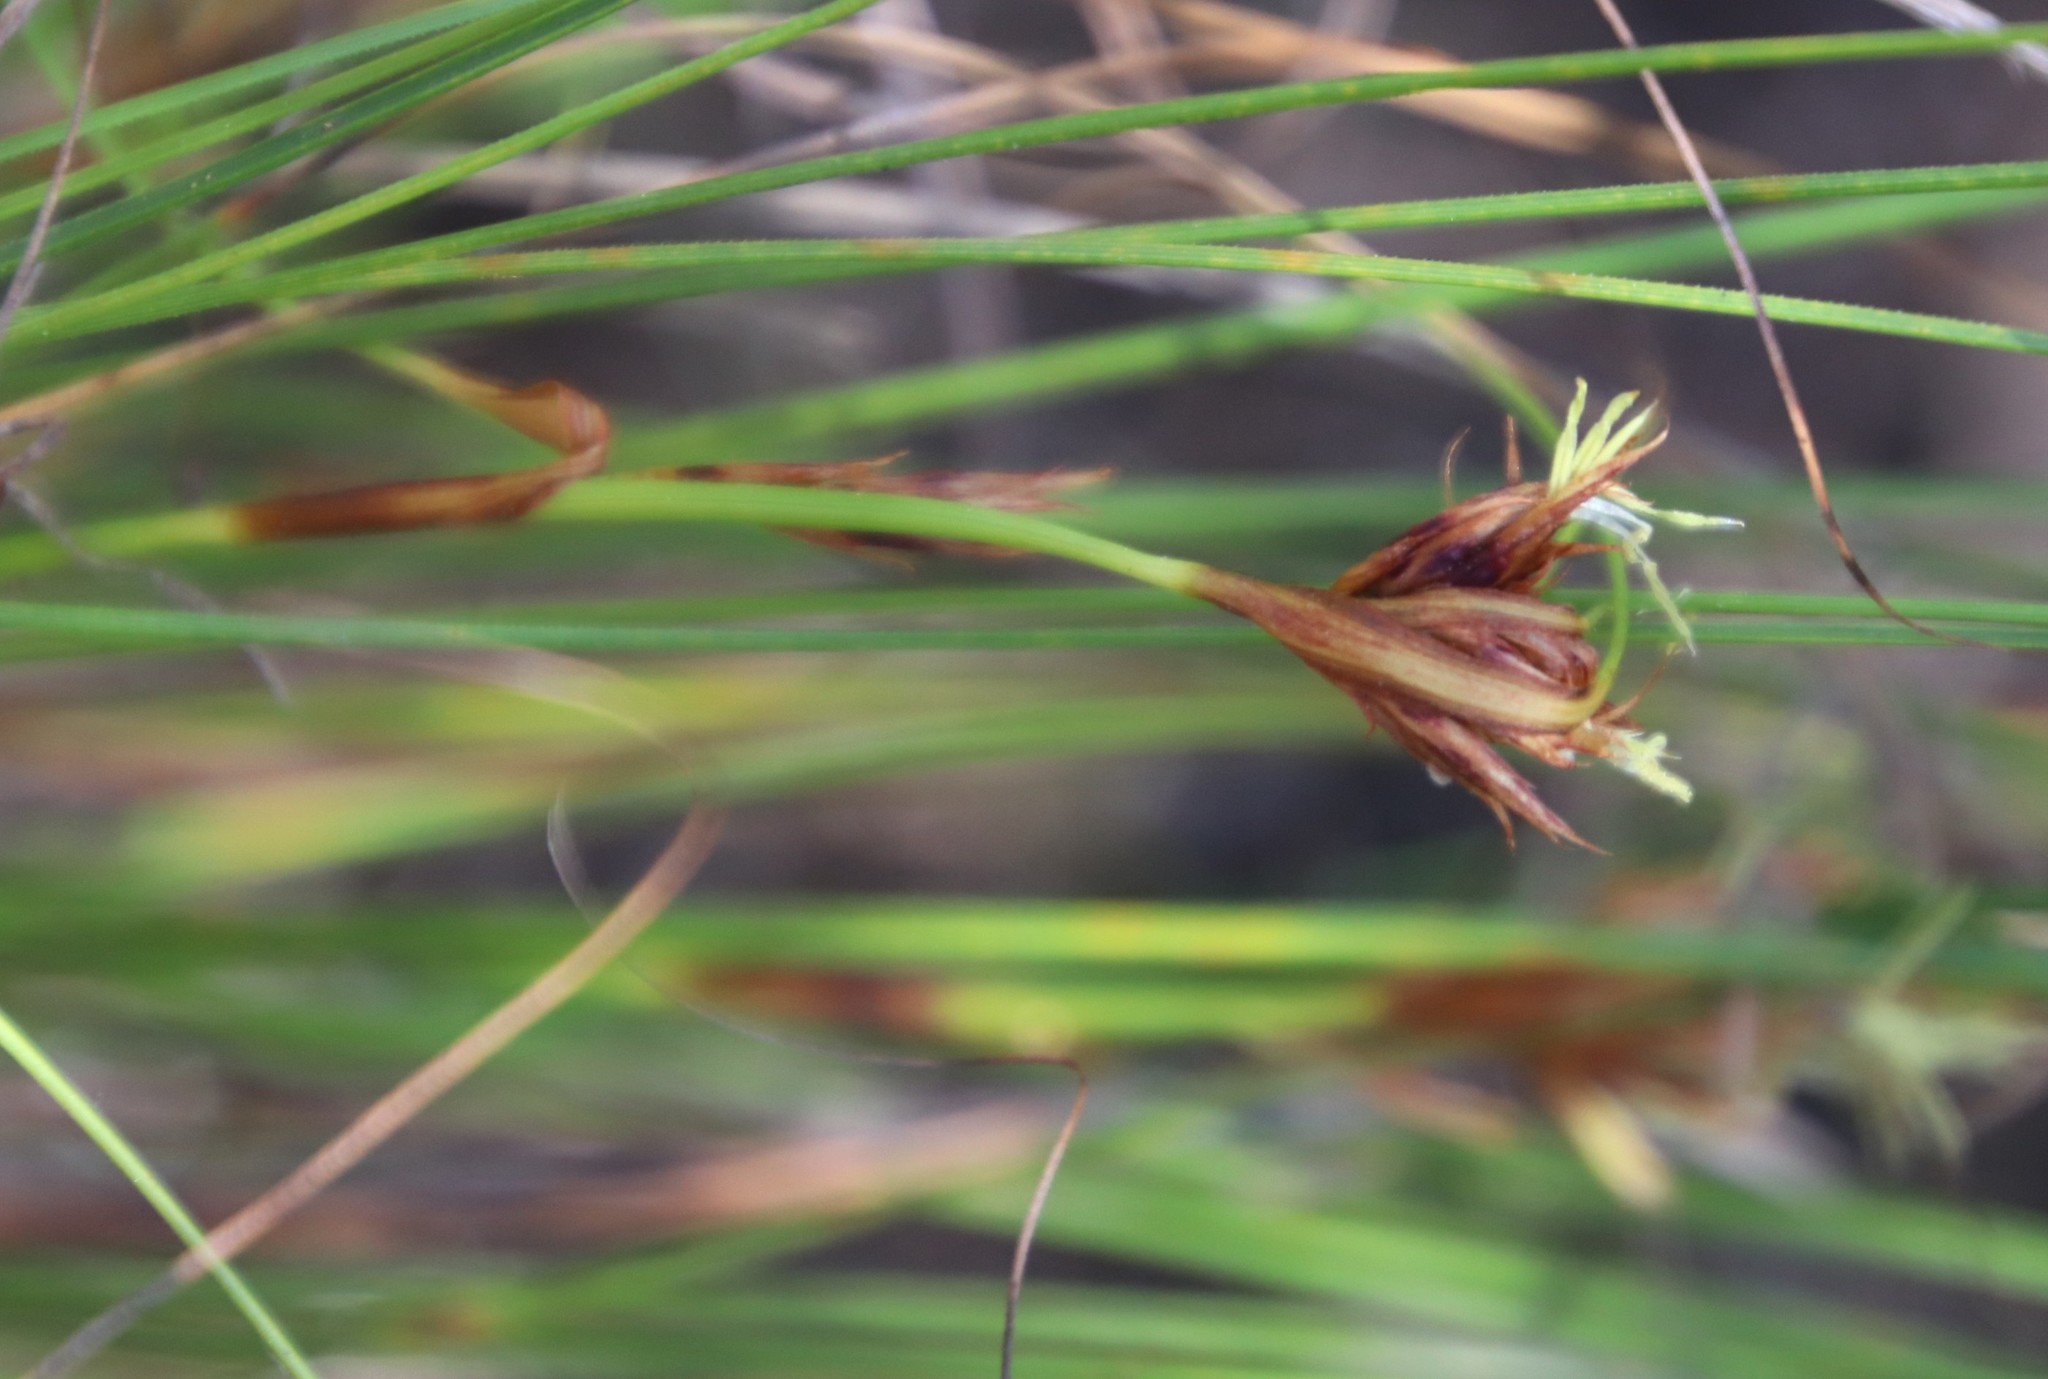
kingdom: Plantae
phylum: Tracheophyta
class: Liliopsida
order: Poales
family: Cyperaceae
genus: Tetraria
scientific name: Tetraria crinifolia
